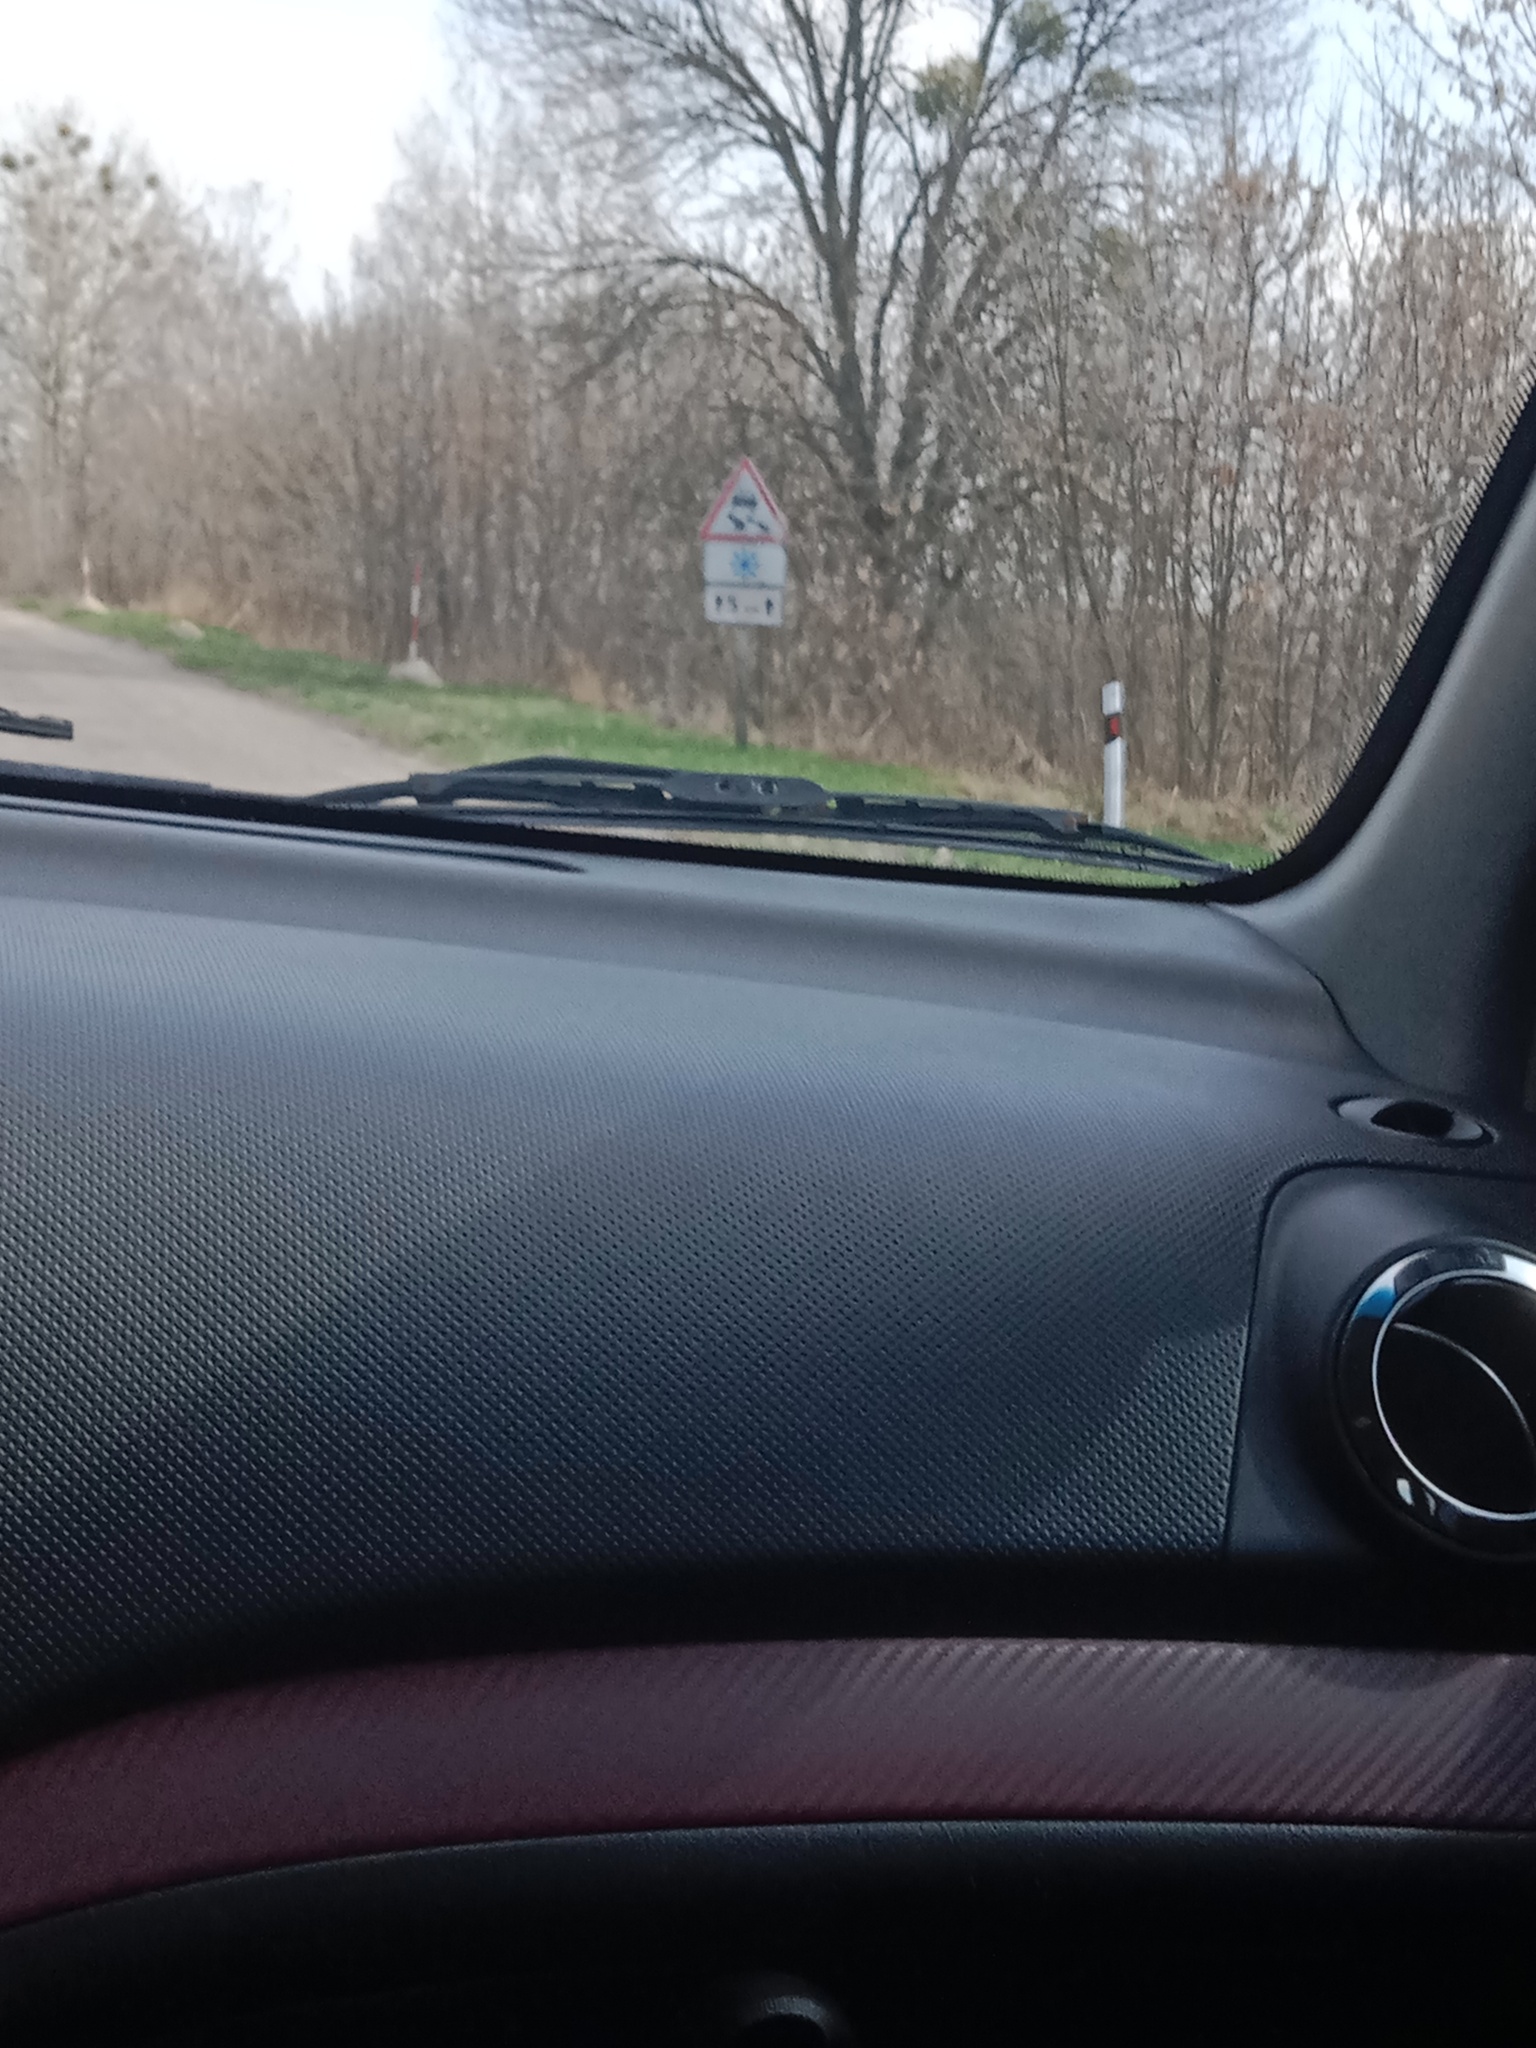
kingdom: Plantae
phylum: Tracheophyta
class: Magnoliopsida
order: Santalales
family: Viscaceae
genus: Viscum
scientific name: Viscum album
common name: Mistletoe
